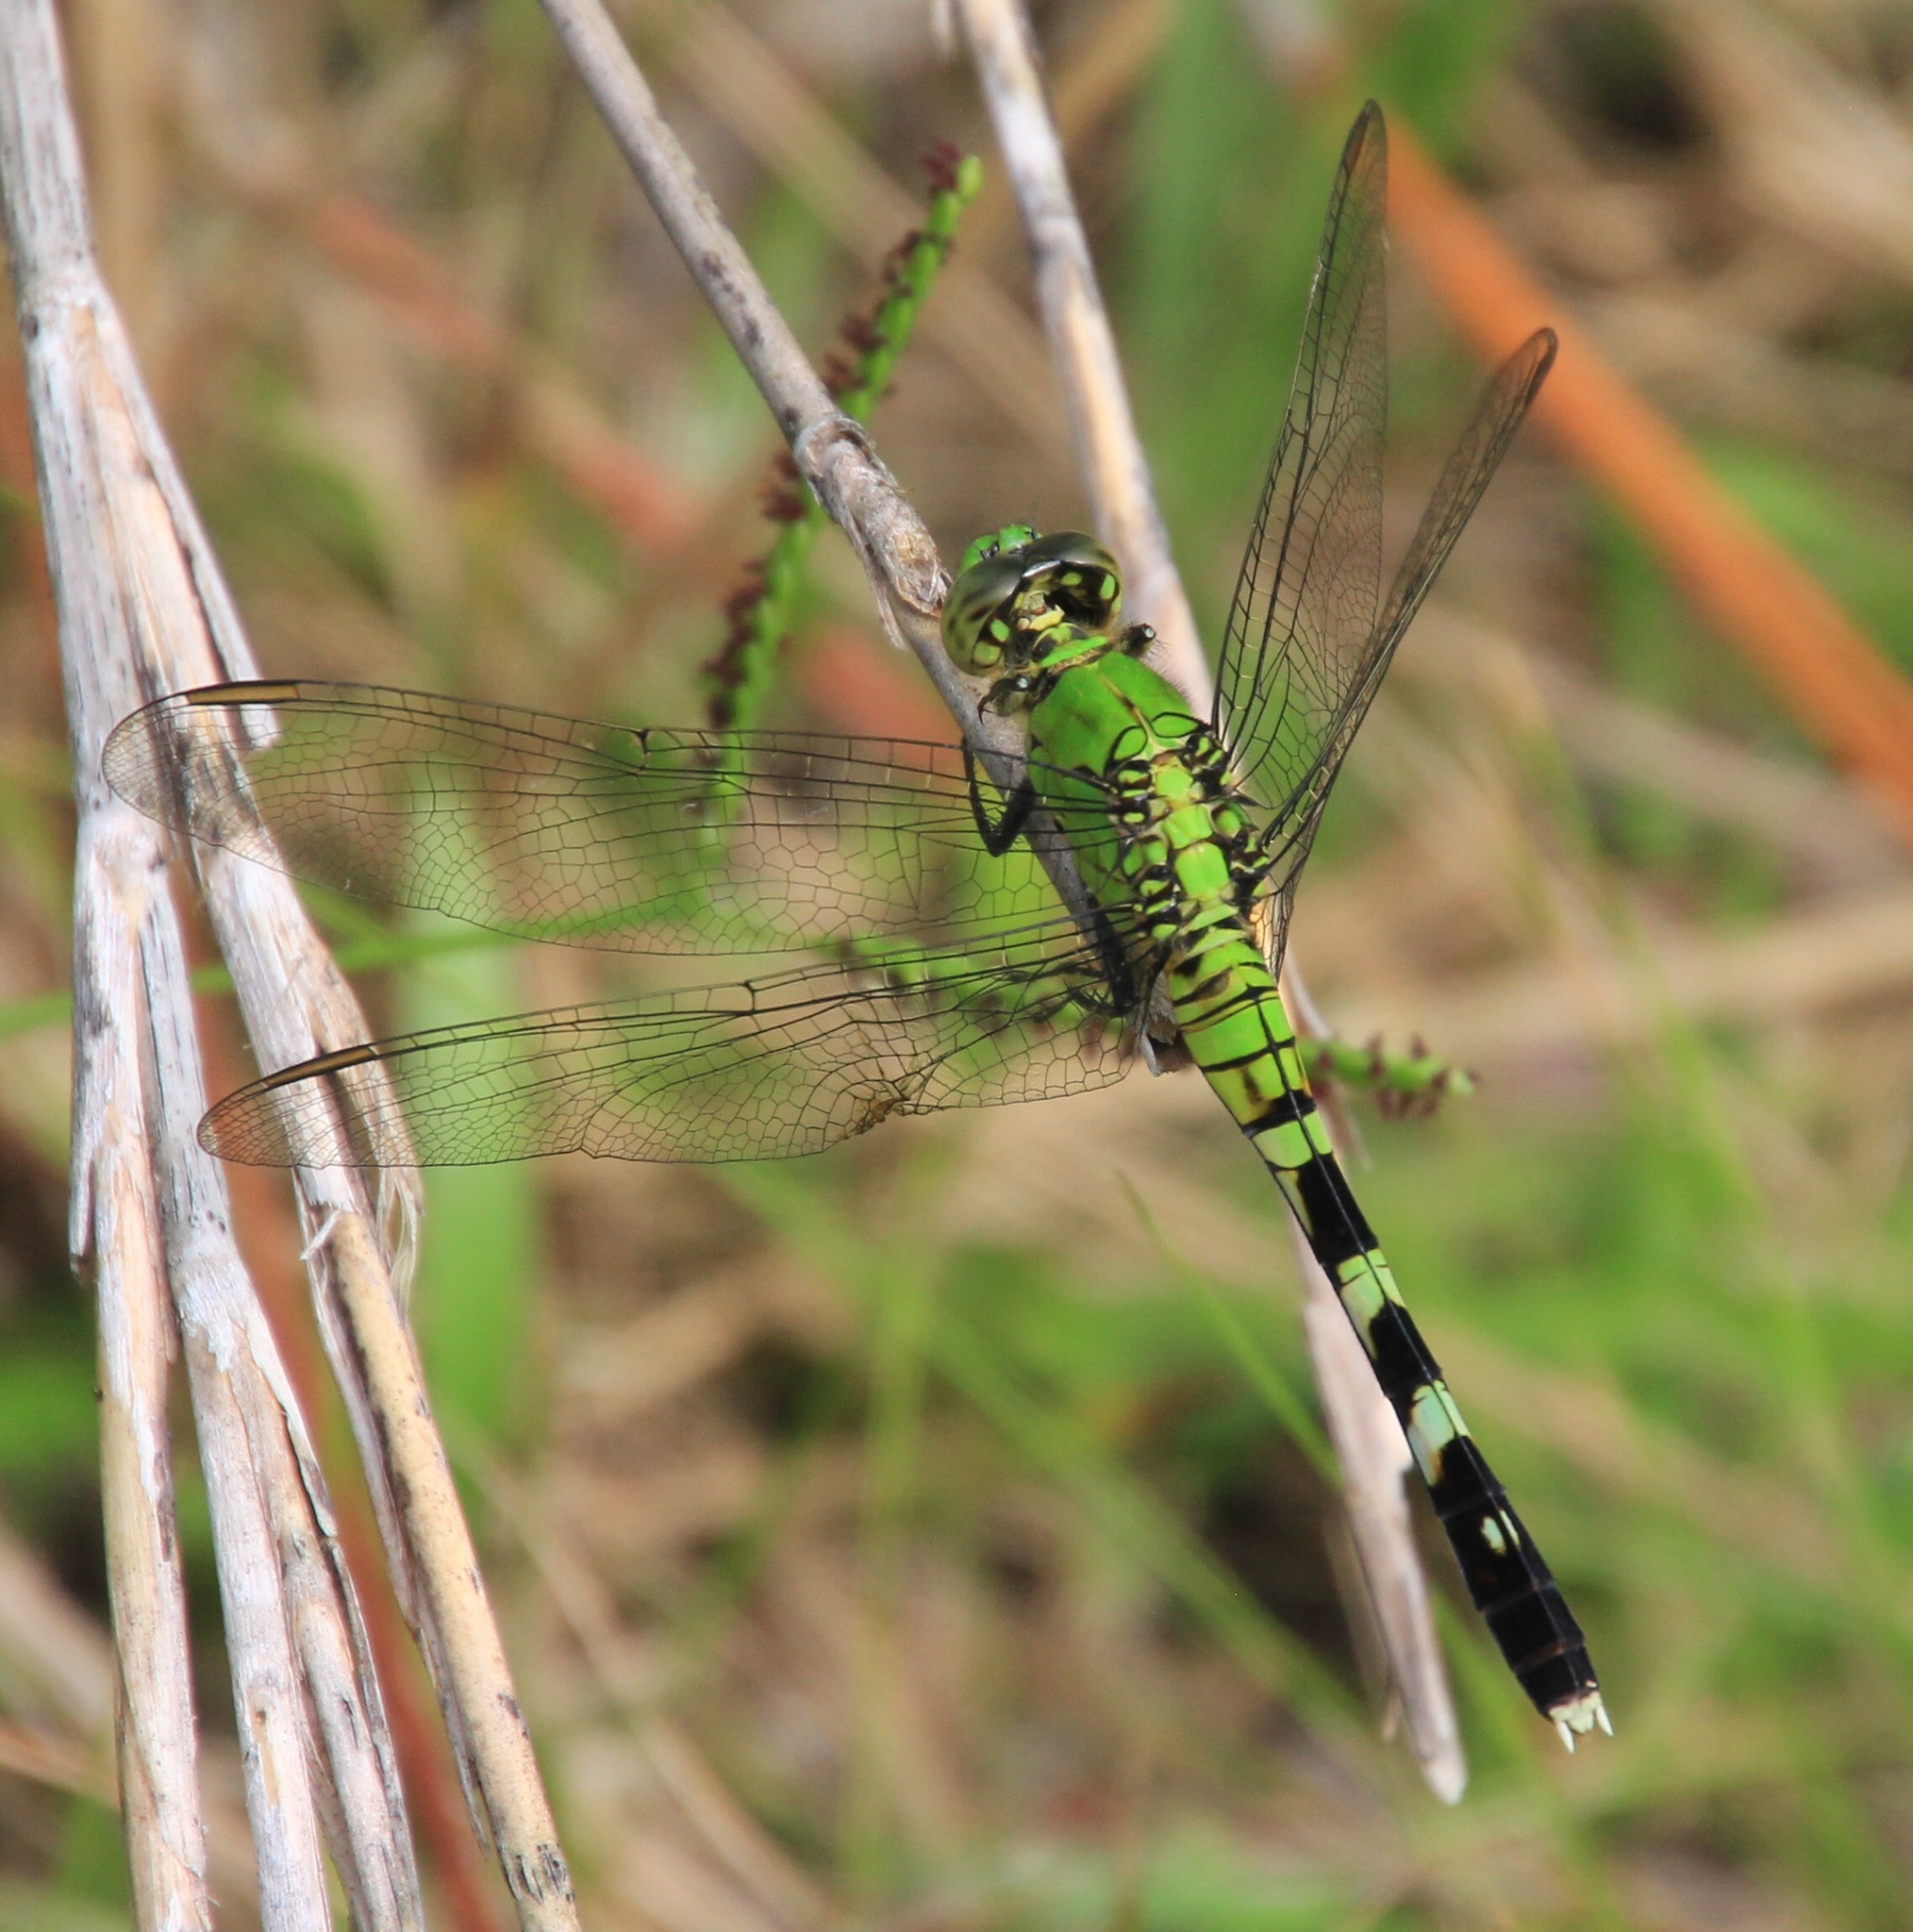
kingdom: Animalia
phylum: Arthropoda
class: Insecta
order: Odonata
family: Libellulidae
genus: Erythemis
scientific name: Erythemis simplicicollis
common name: Eastern pondhawk
